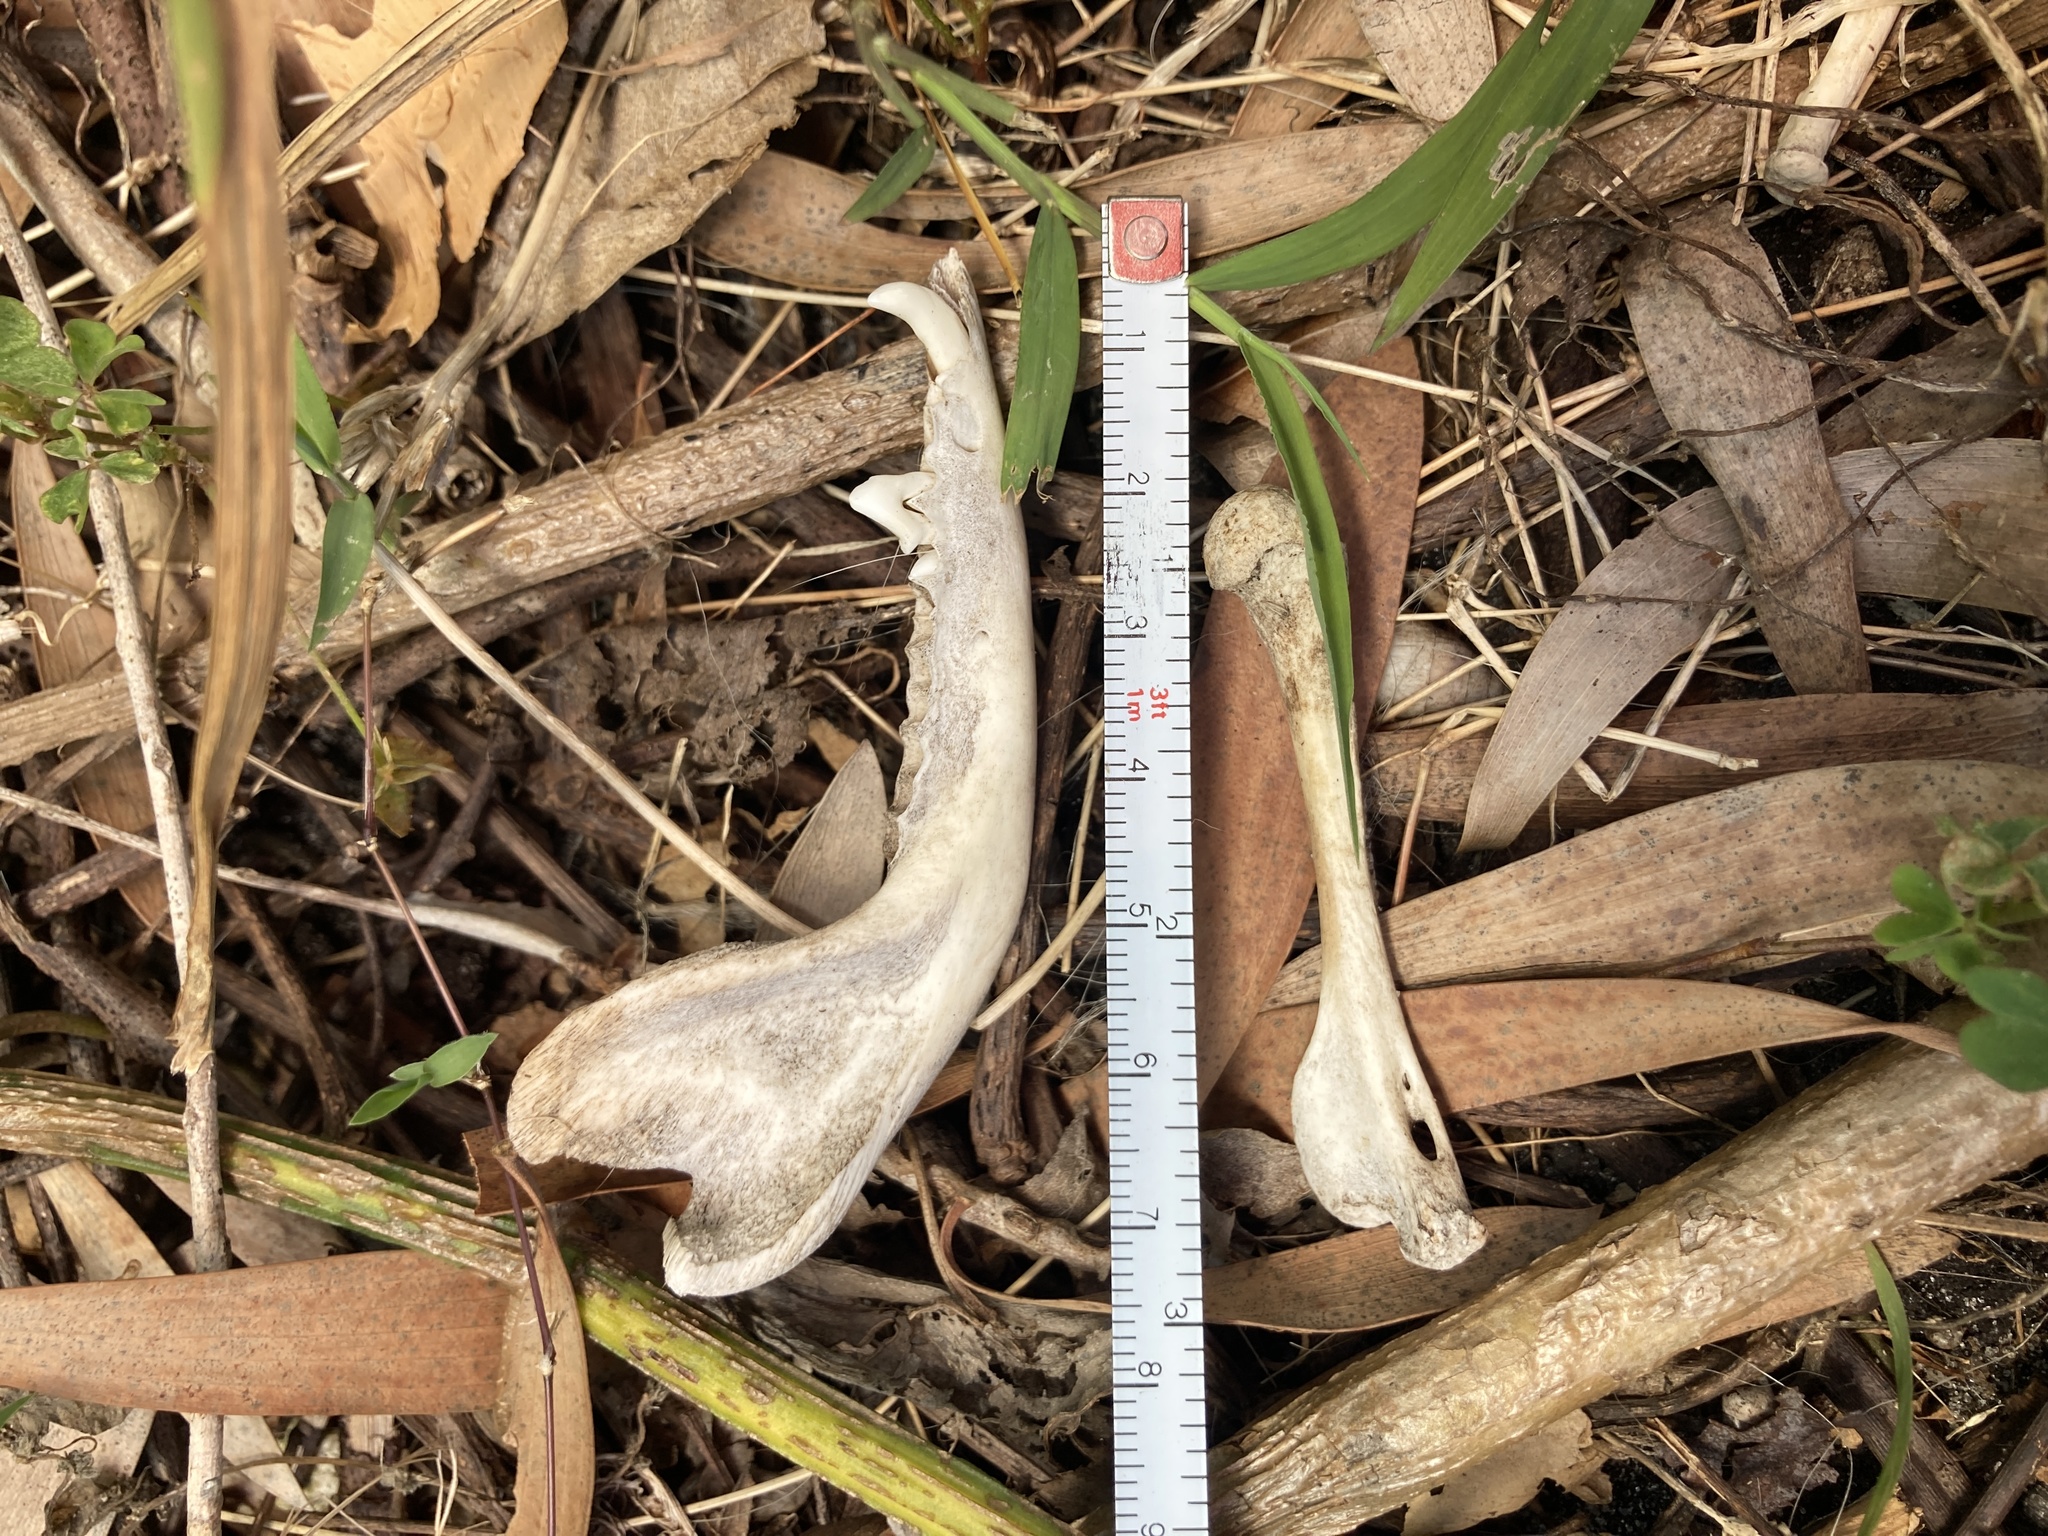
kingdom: Animalia
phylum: Chordata
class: Mammalia
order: Didelphimorphia
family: Didelphidae
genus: Didelphis
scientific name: Didelphis virginiana
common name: Virginia opossum
